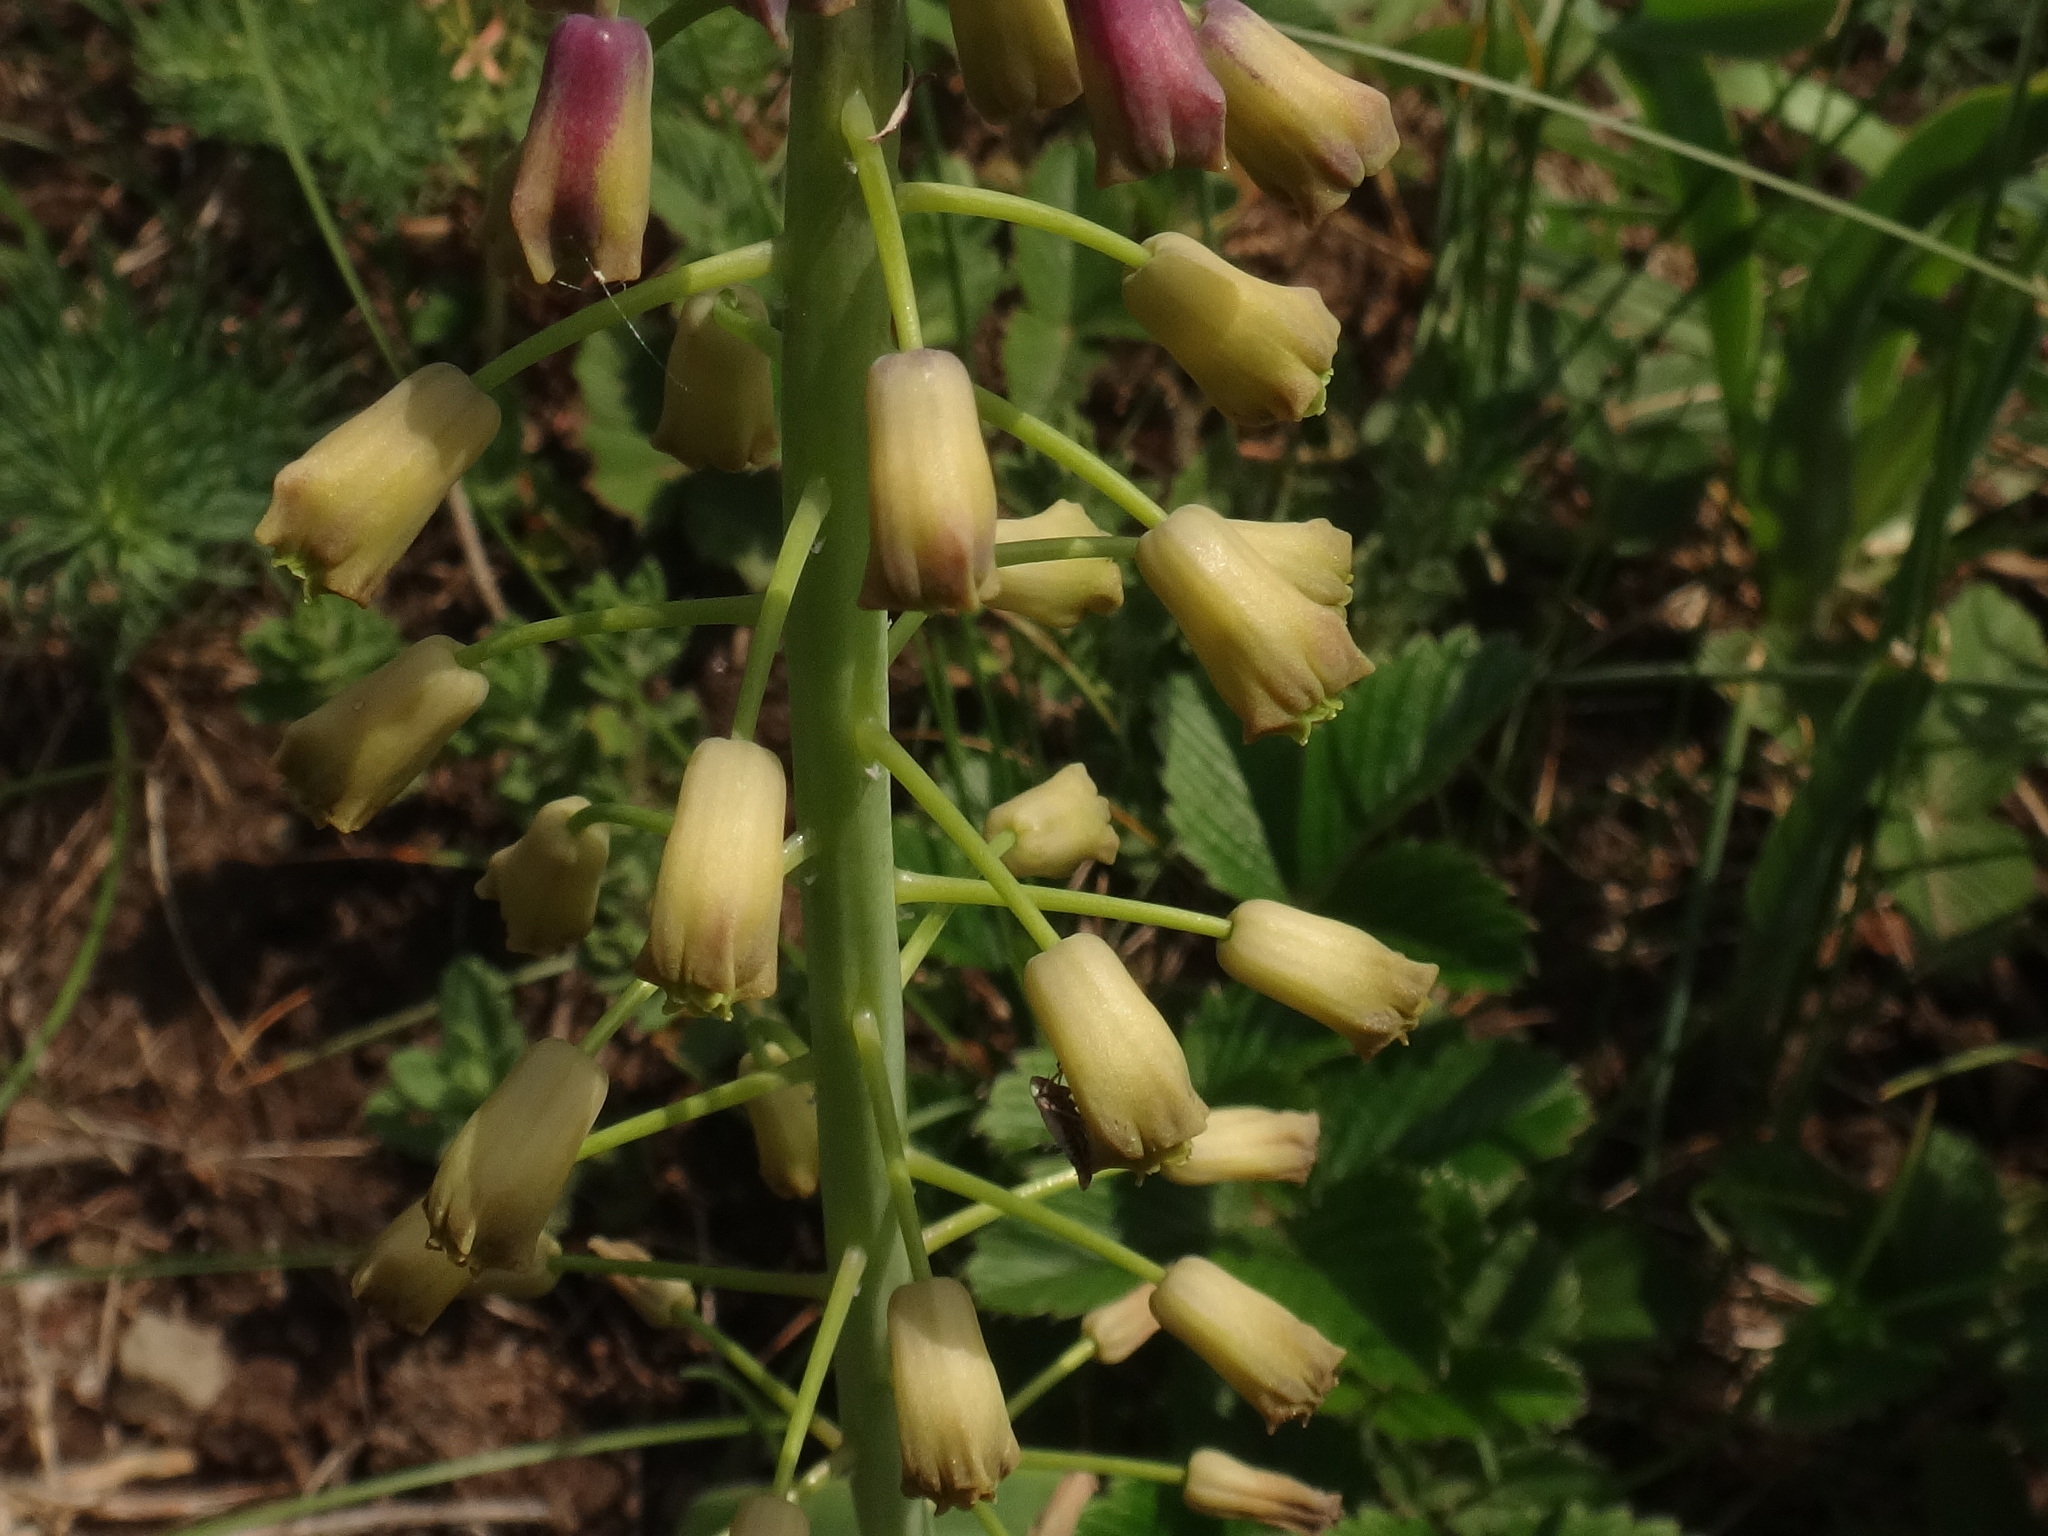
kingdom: Plantae
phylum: Tracheophyta
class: Liliopsida
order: Asparagales
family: Asparagaceae
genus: Muscari
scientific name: Muscari comosum
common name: Tassel hyacinth
